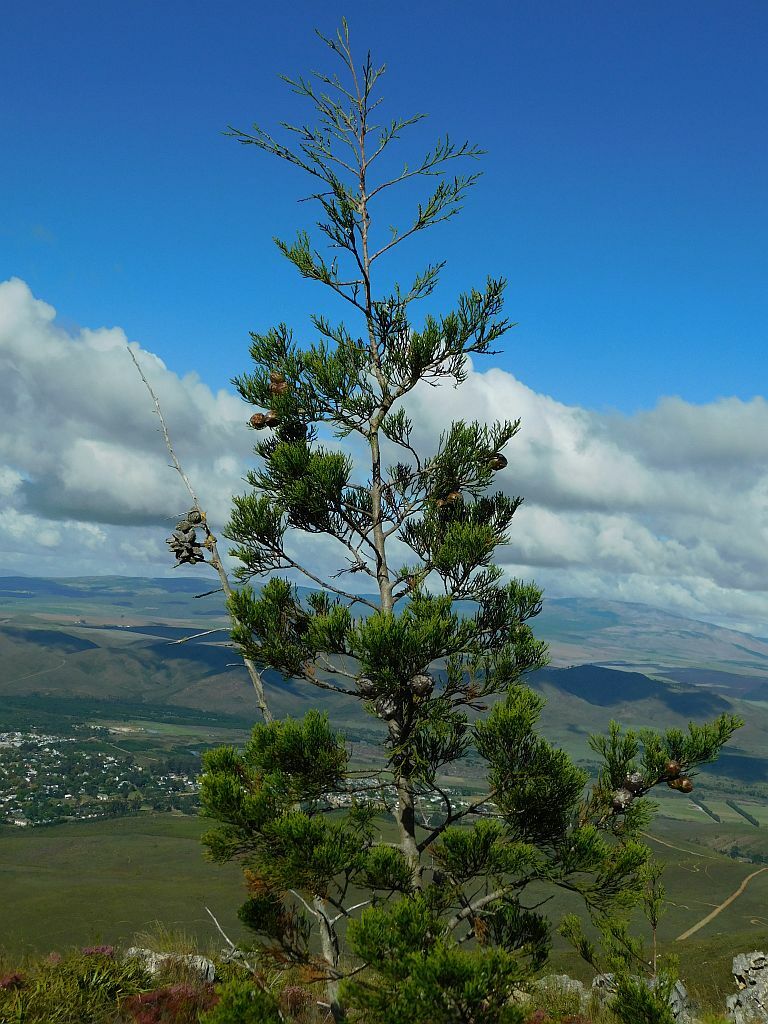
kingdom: Plantae
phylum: Tracheophyta
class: Pinopsida
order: Pinales
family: Cupressaceae
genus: Widdringtonia
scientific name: Widdringtonia nodiflora
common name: Cape cypress
